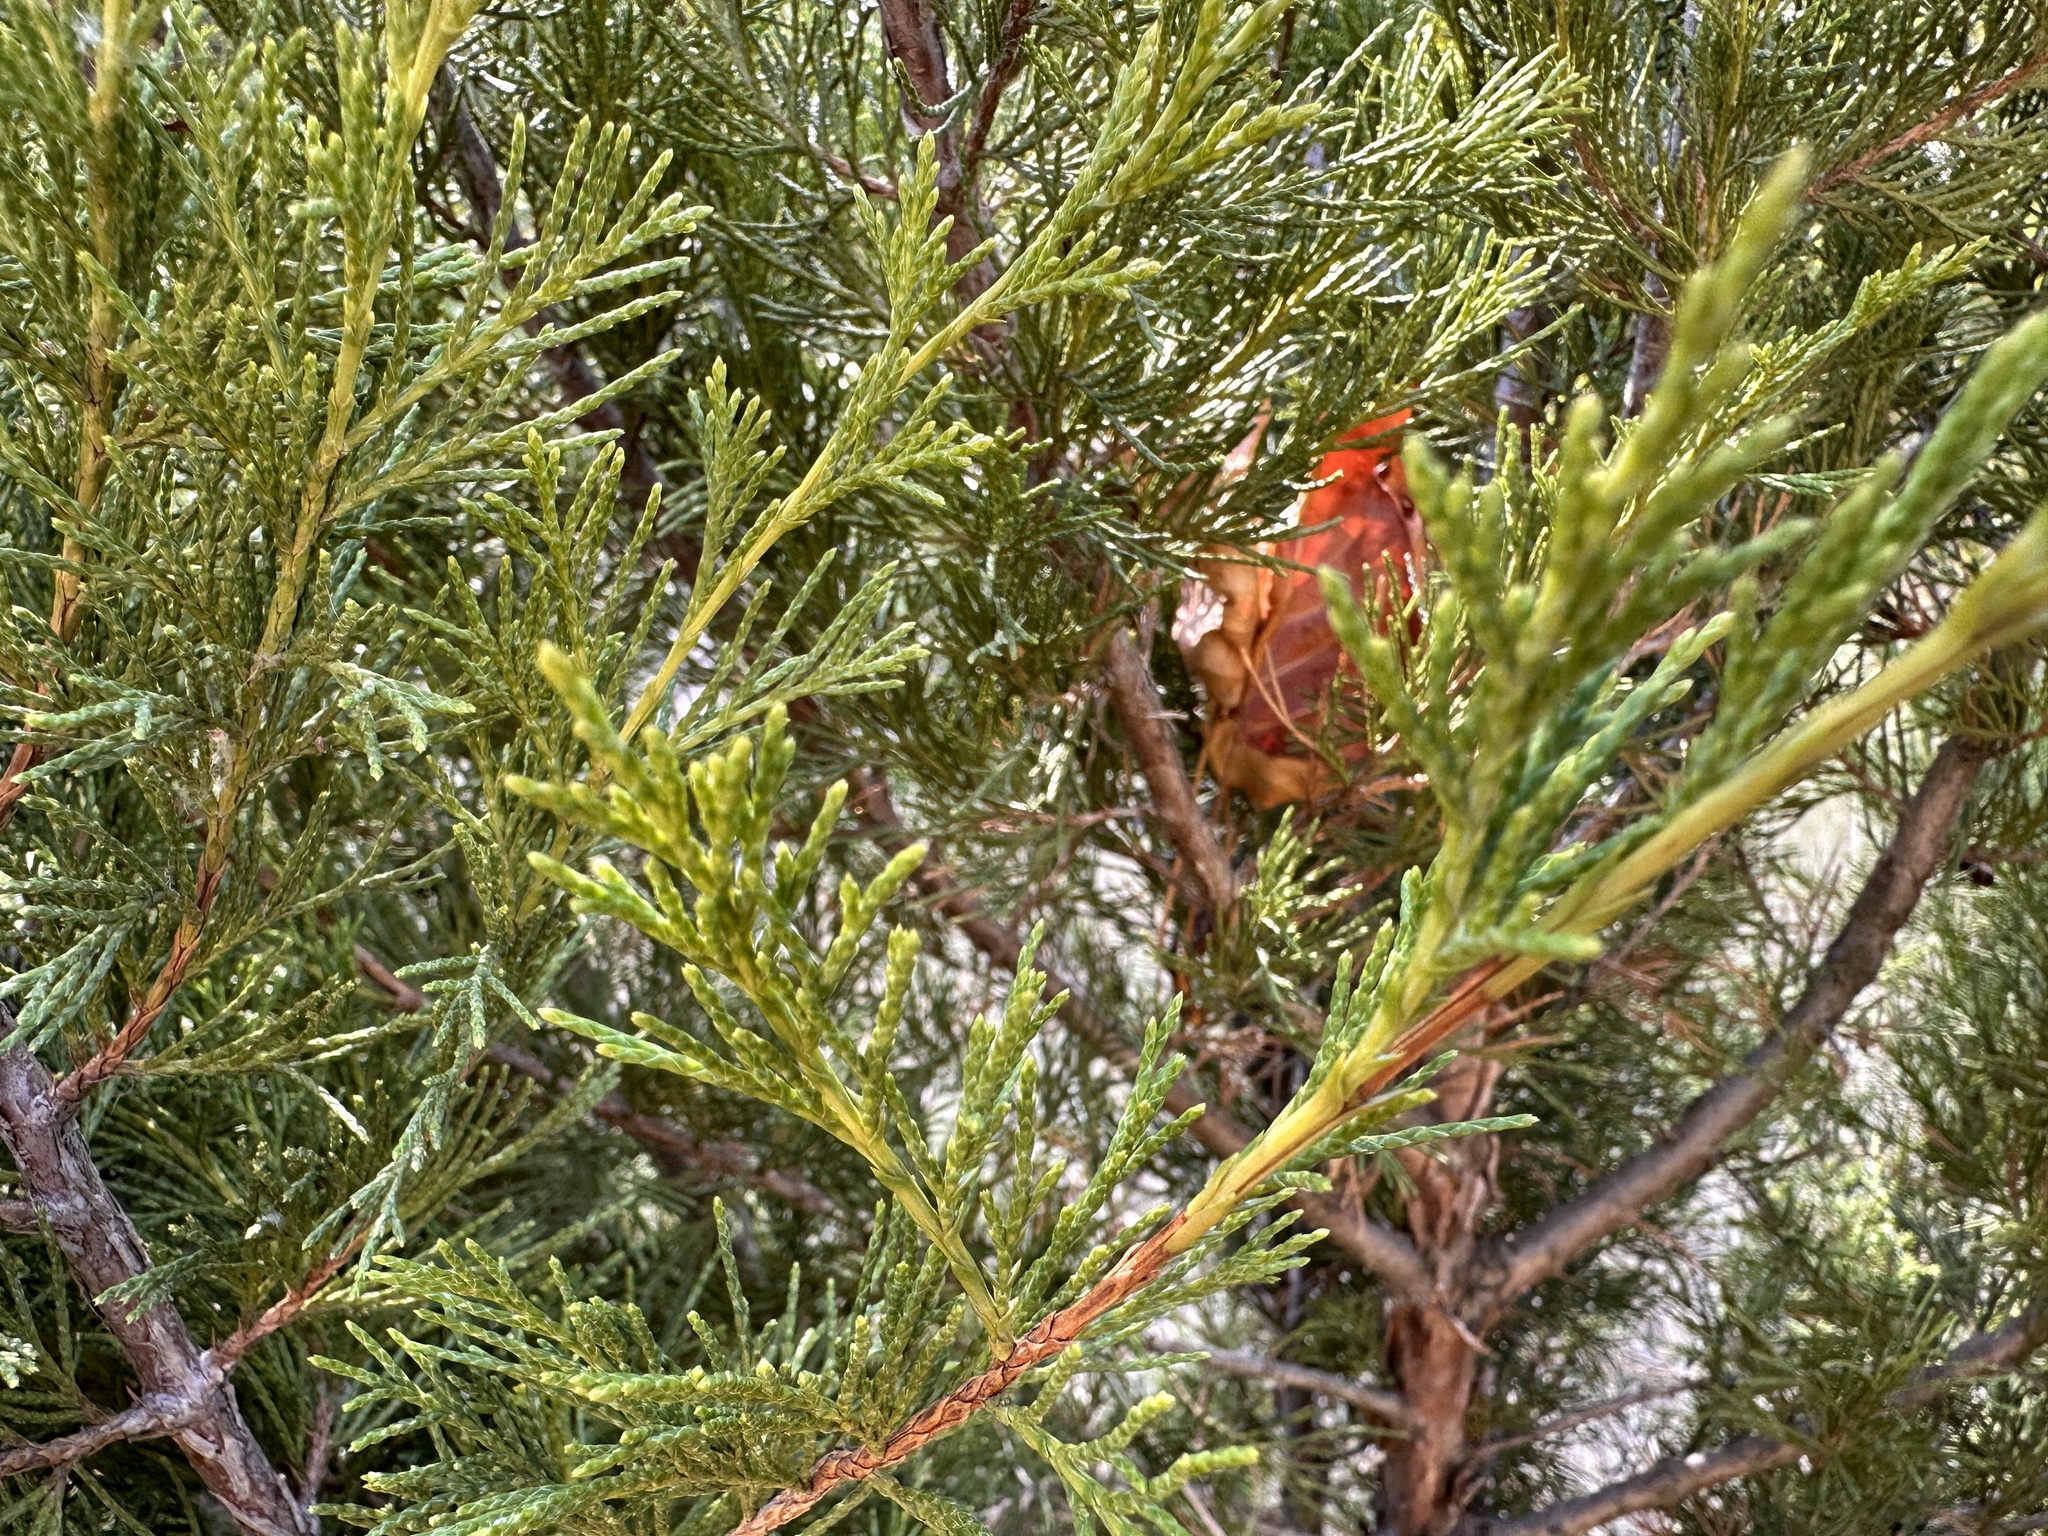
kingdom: Plantae
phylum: Tracheophyta
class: Pinopsida
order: Pinales
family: Cupressaceae
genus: Juniperus
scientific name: Juniperus scopulorum
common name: Rocky mountain juniper
